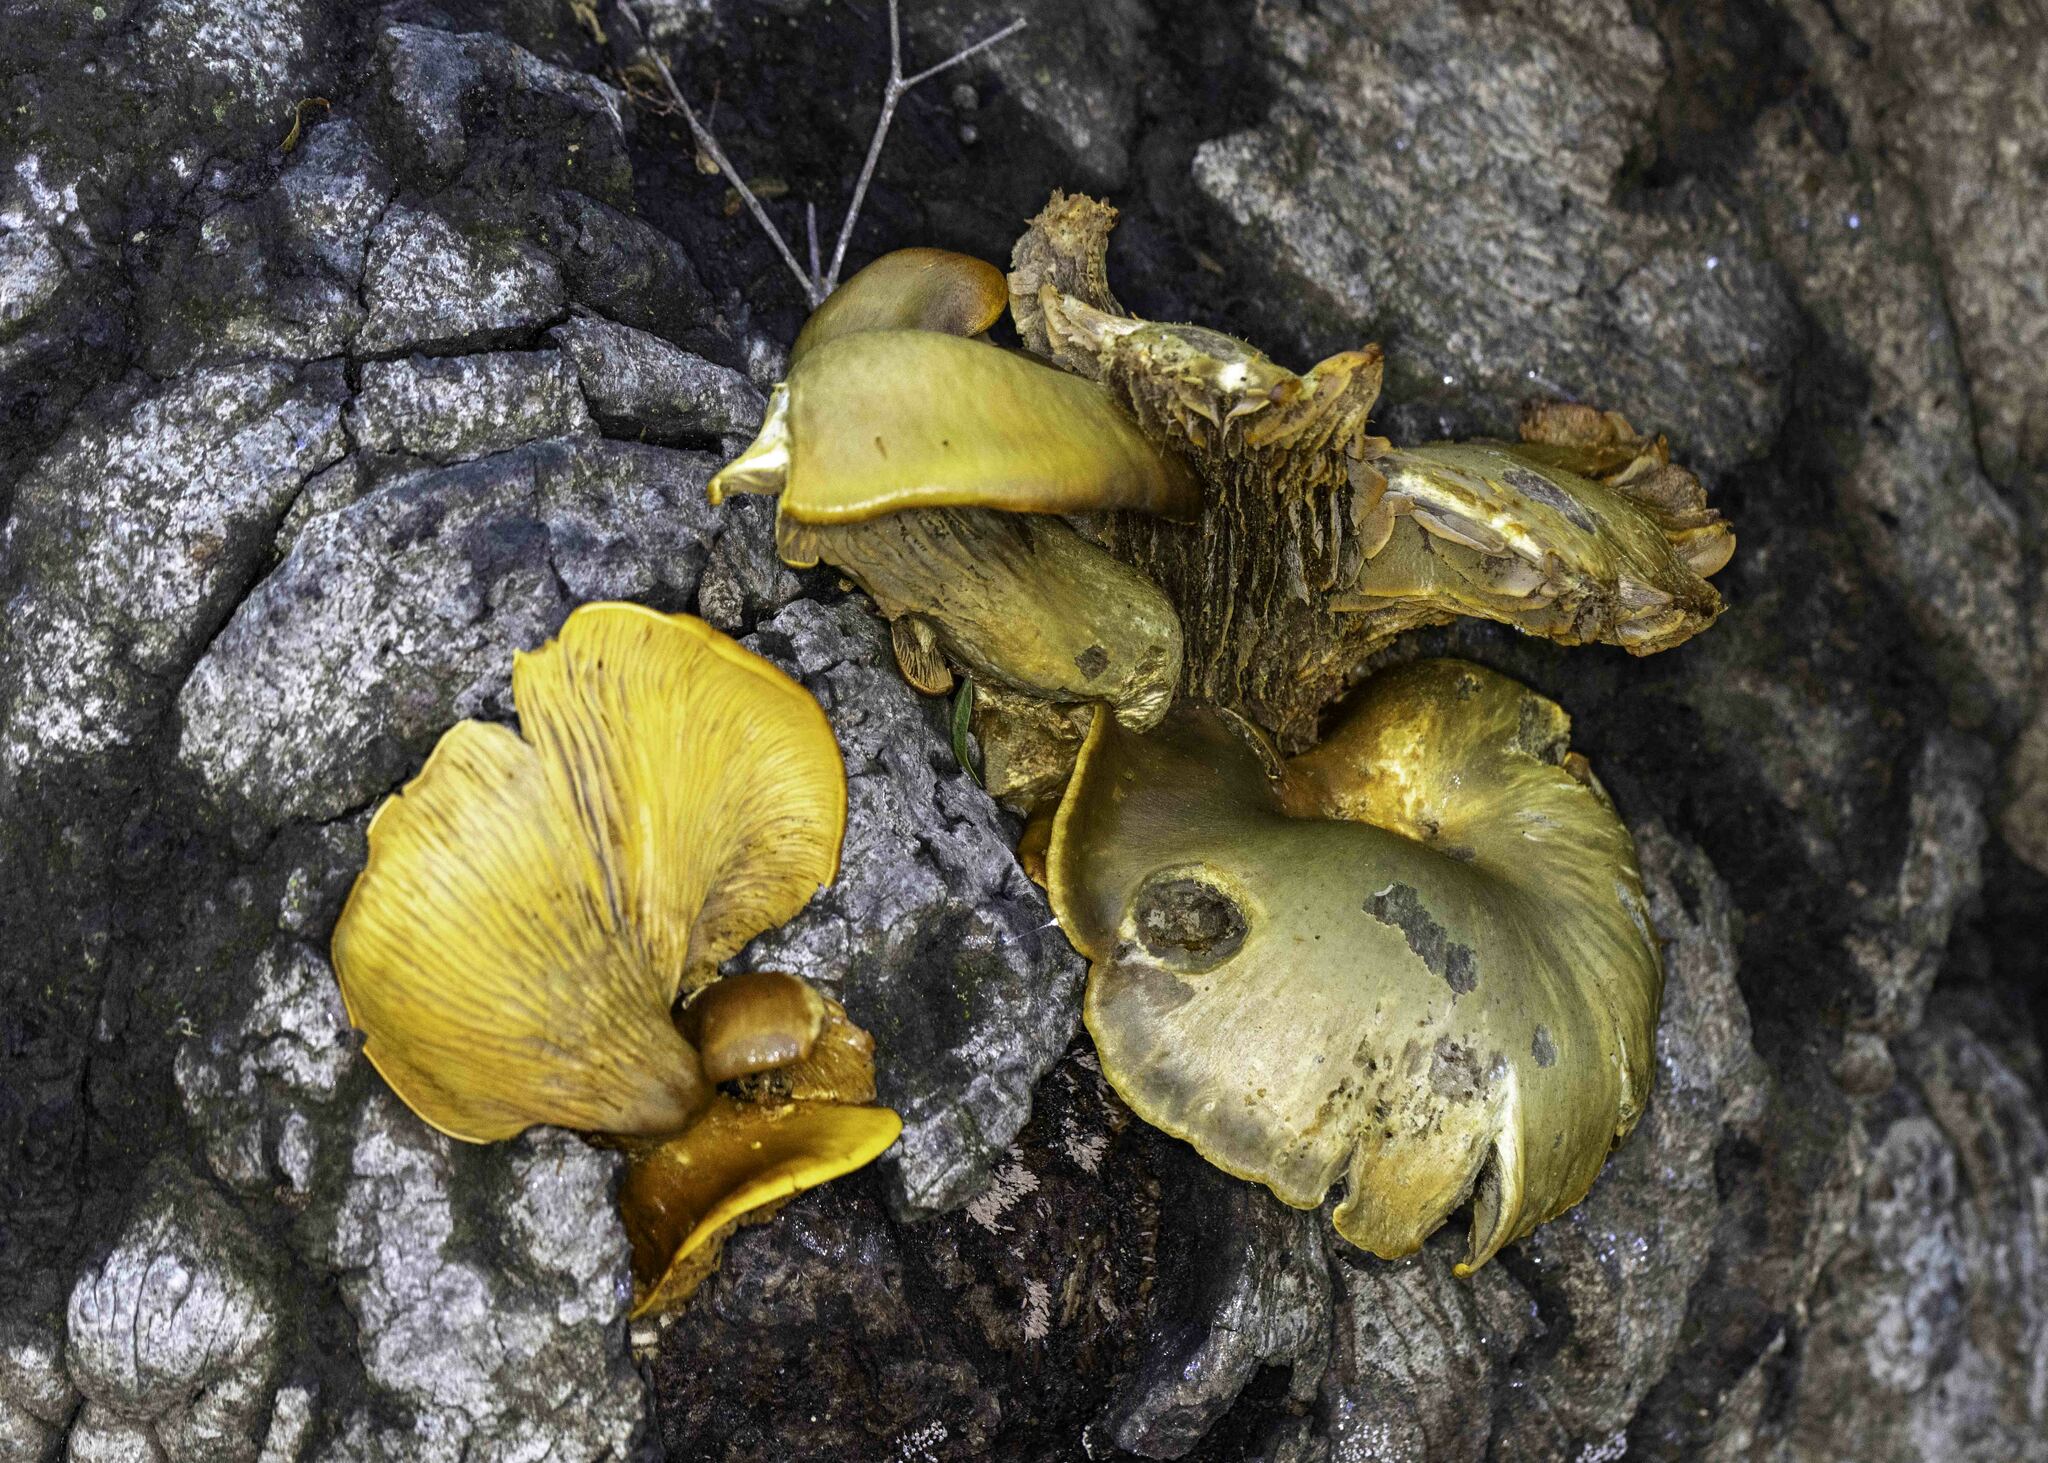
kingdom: Fungi
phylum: Basidiomycota
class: Agaricomycetes
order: Agaricales
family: Omphalotaceae
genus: Omphalotus
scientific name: Omphalotus olivascens
